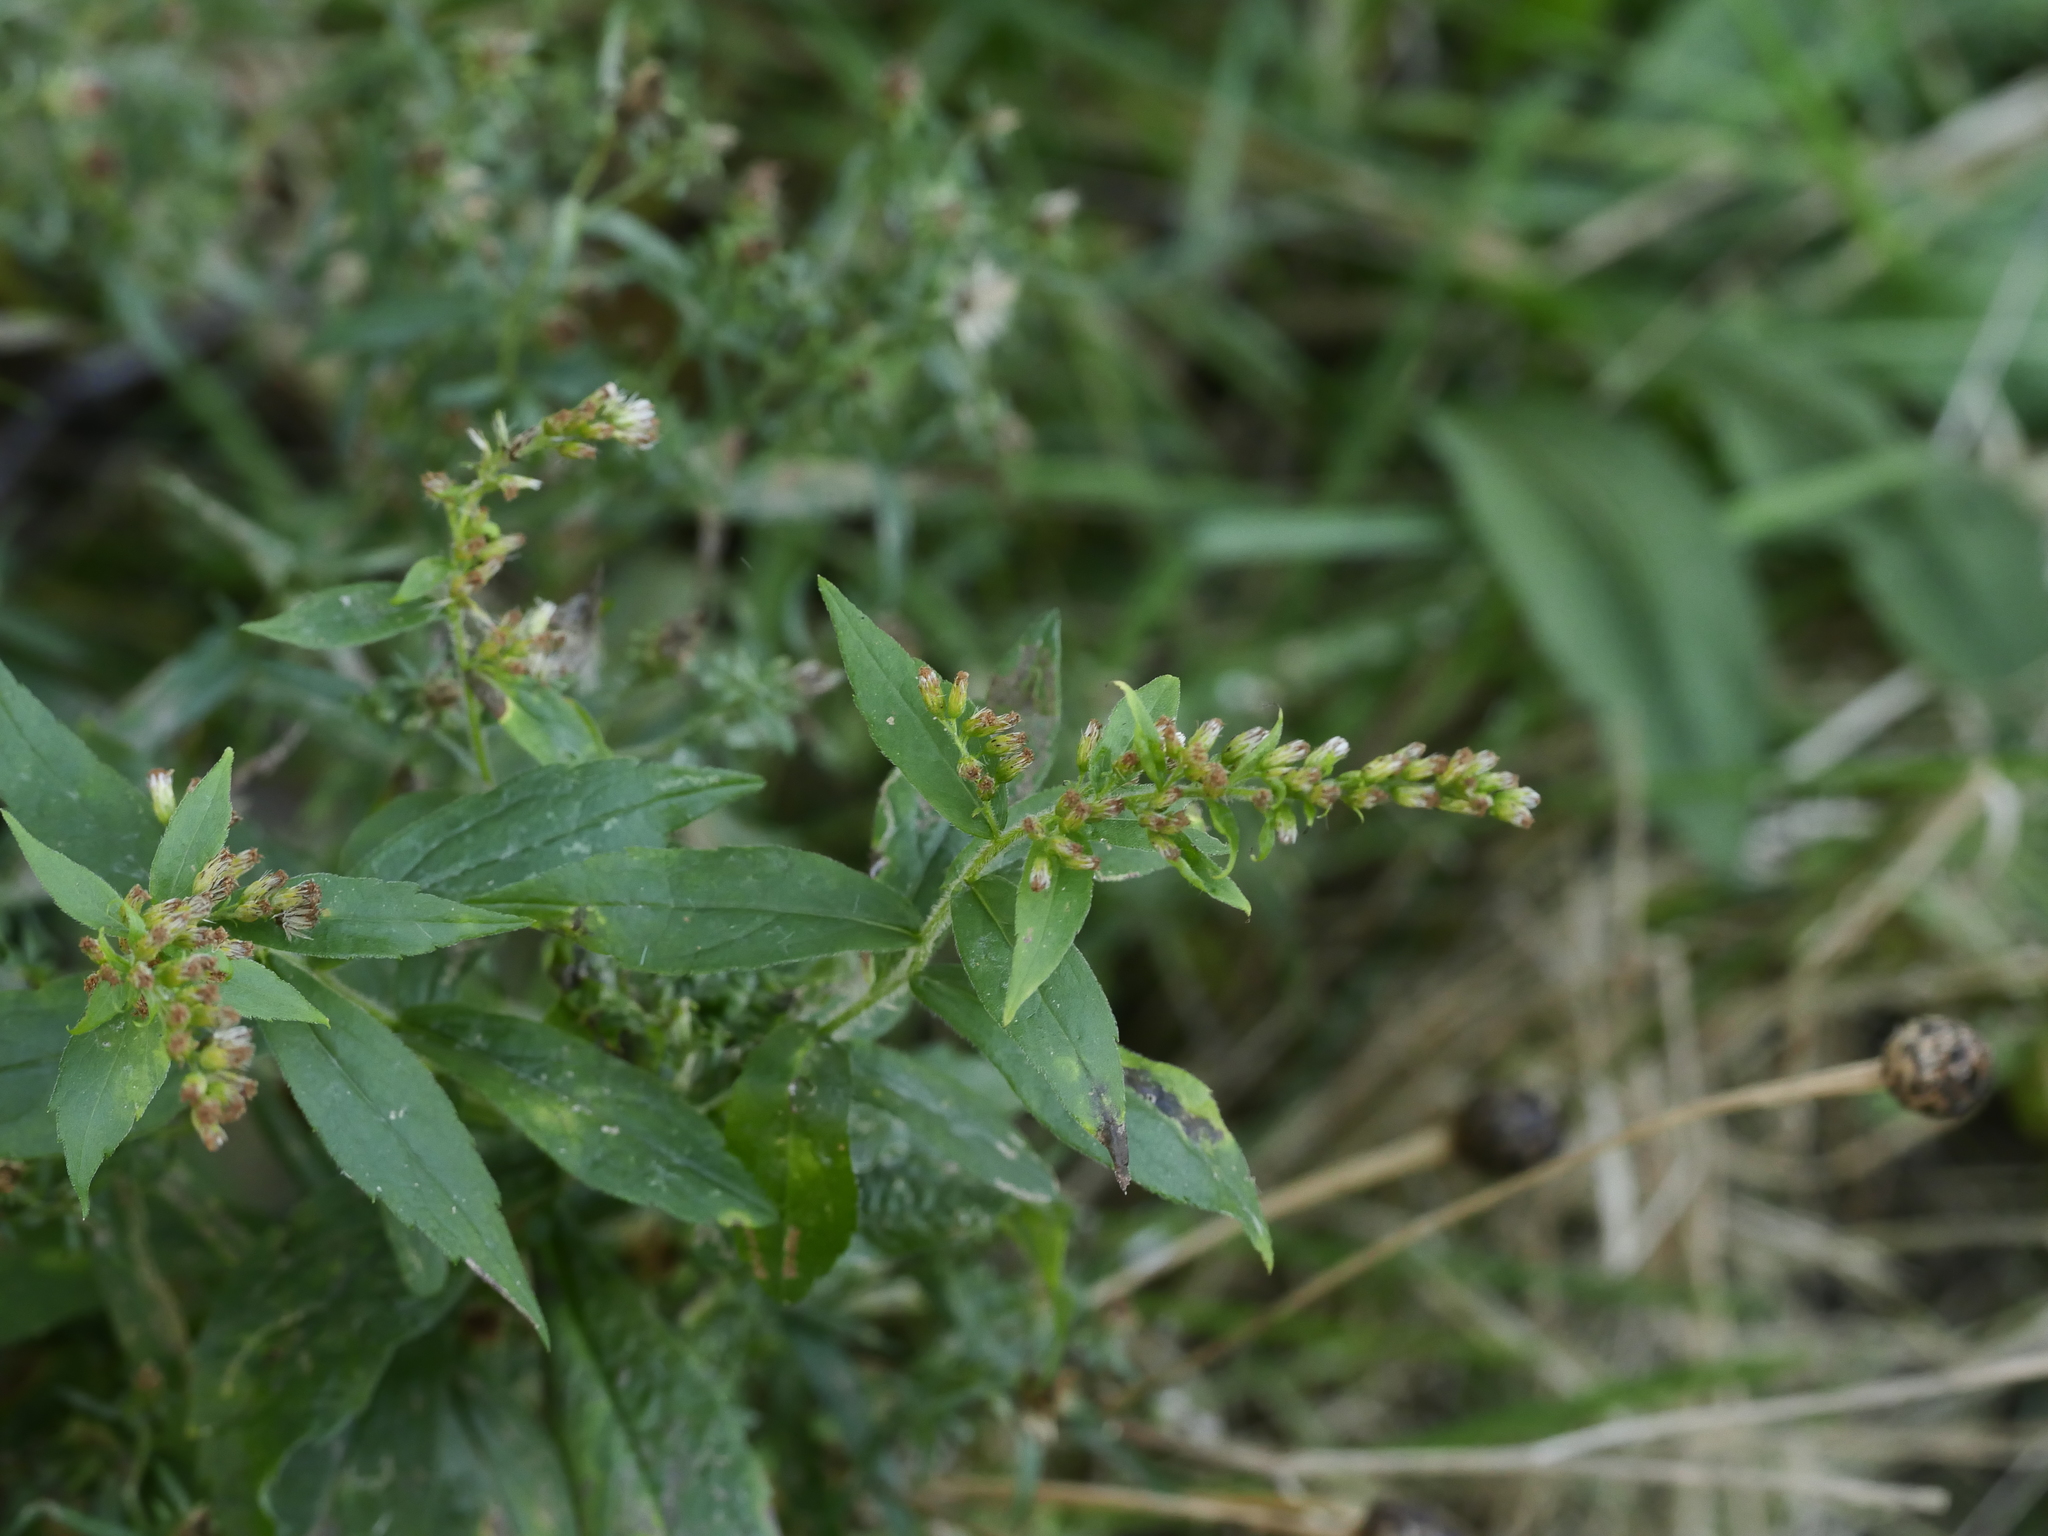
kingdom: Plantae
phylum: Tracheophyta
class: Magnoliopsida
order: Asterales
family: Asteraceae
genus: Solidago
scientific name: Solidago rugosa
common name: Rough-stemmed goldenrod
